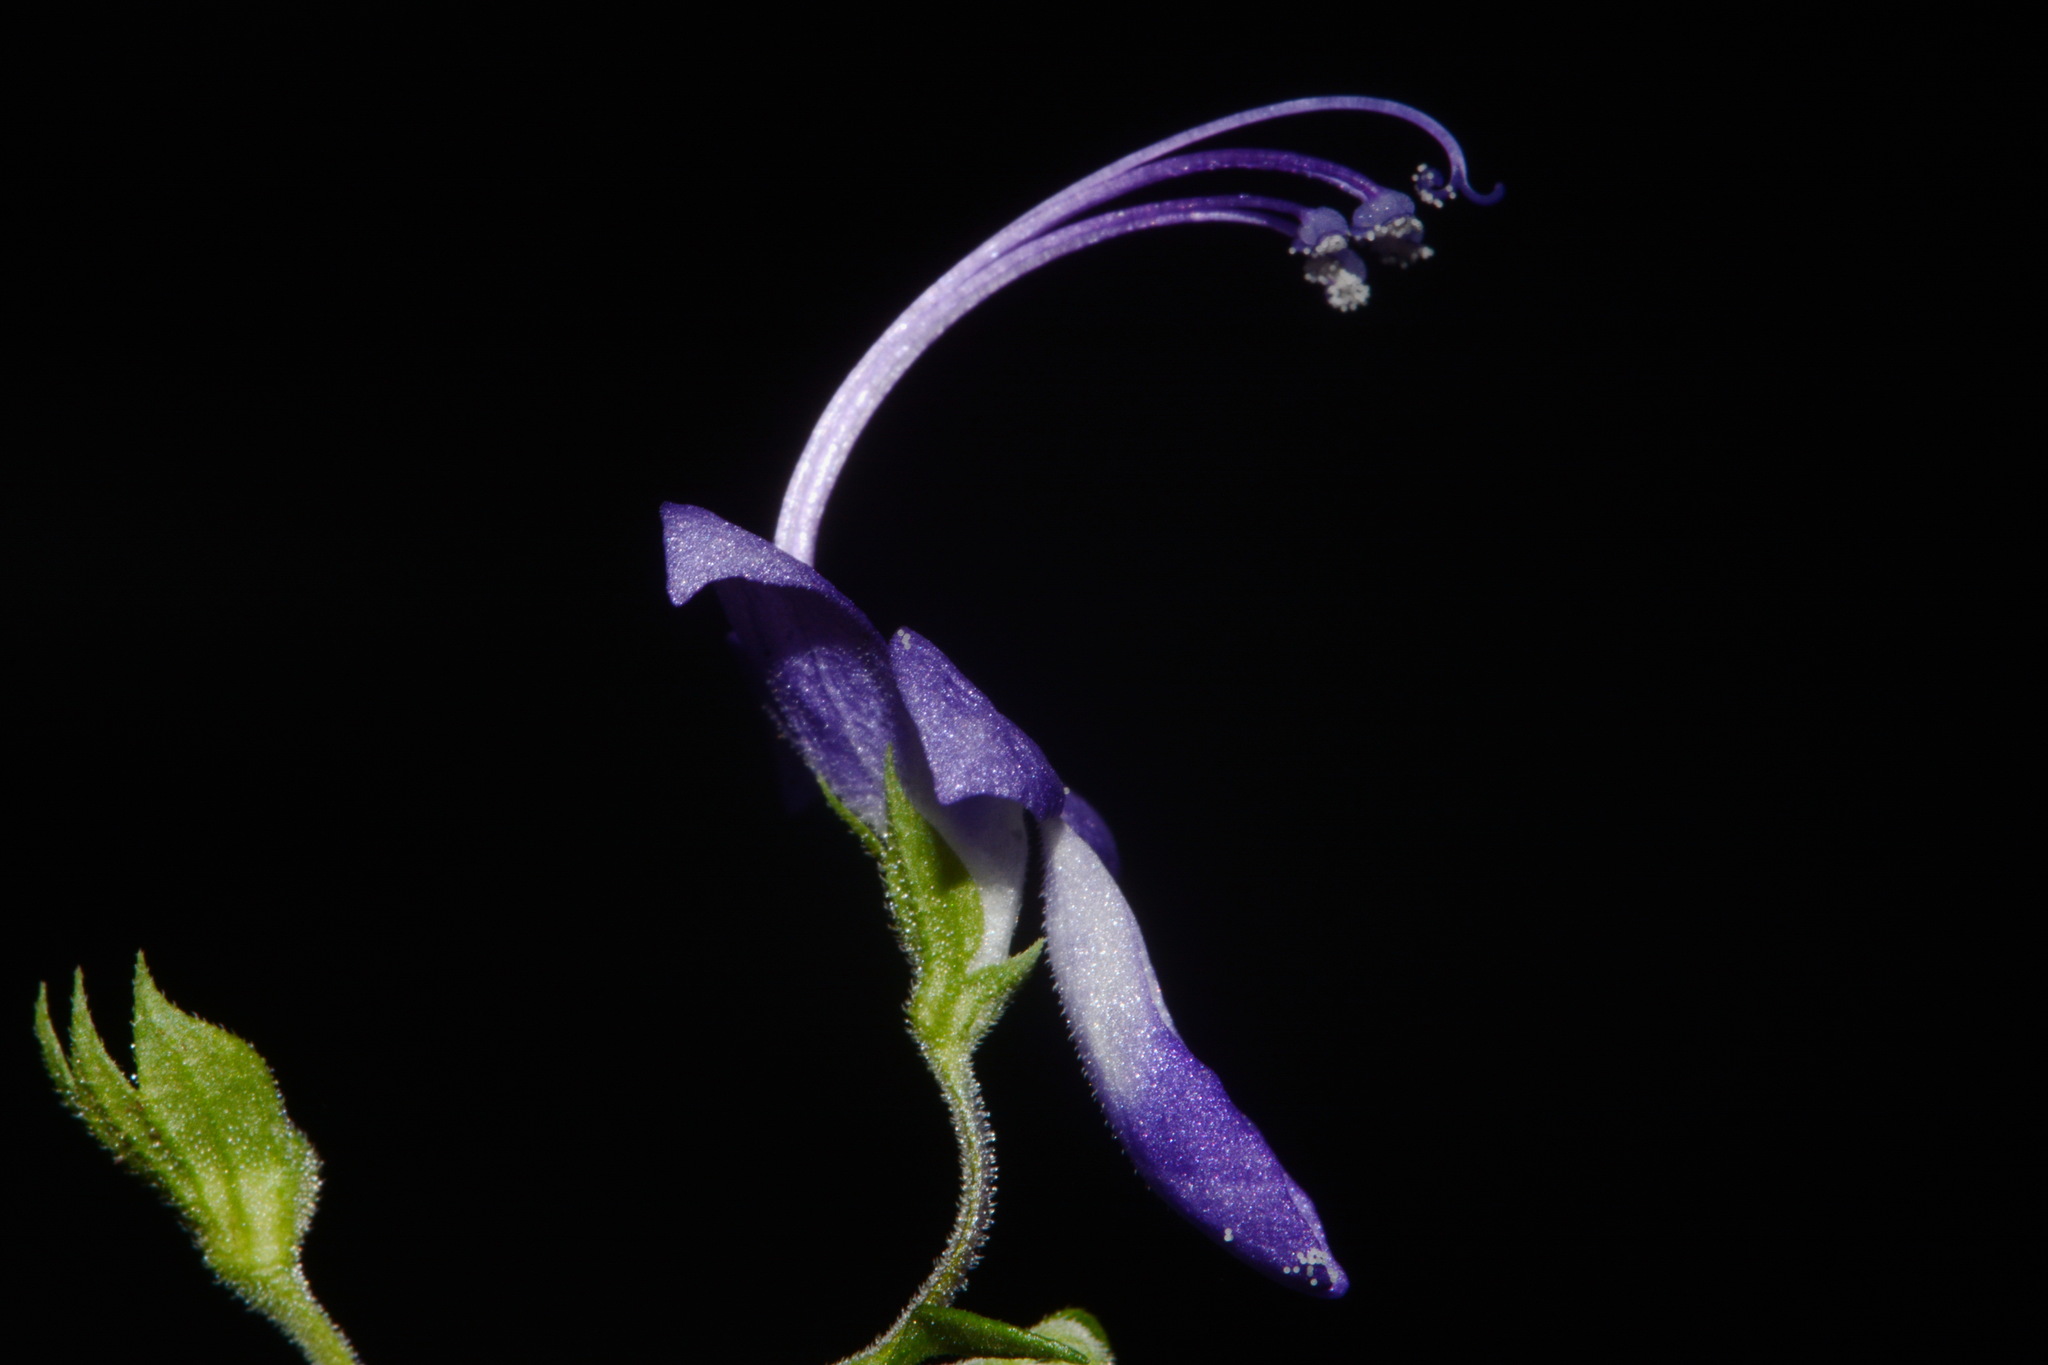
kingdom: Plantae
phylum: Tracheophyta
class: Magnoliopsida
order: Lamiales
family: Lamiaceae
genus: Trichostema
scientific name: Trichostema fruticosum
